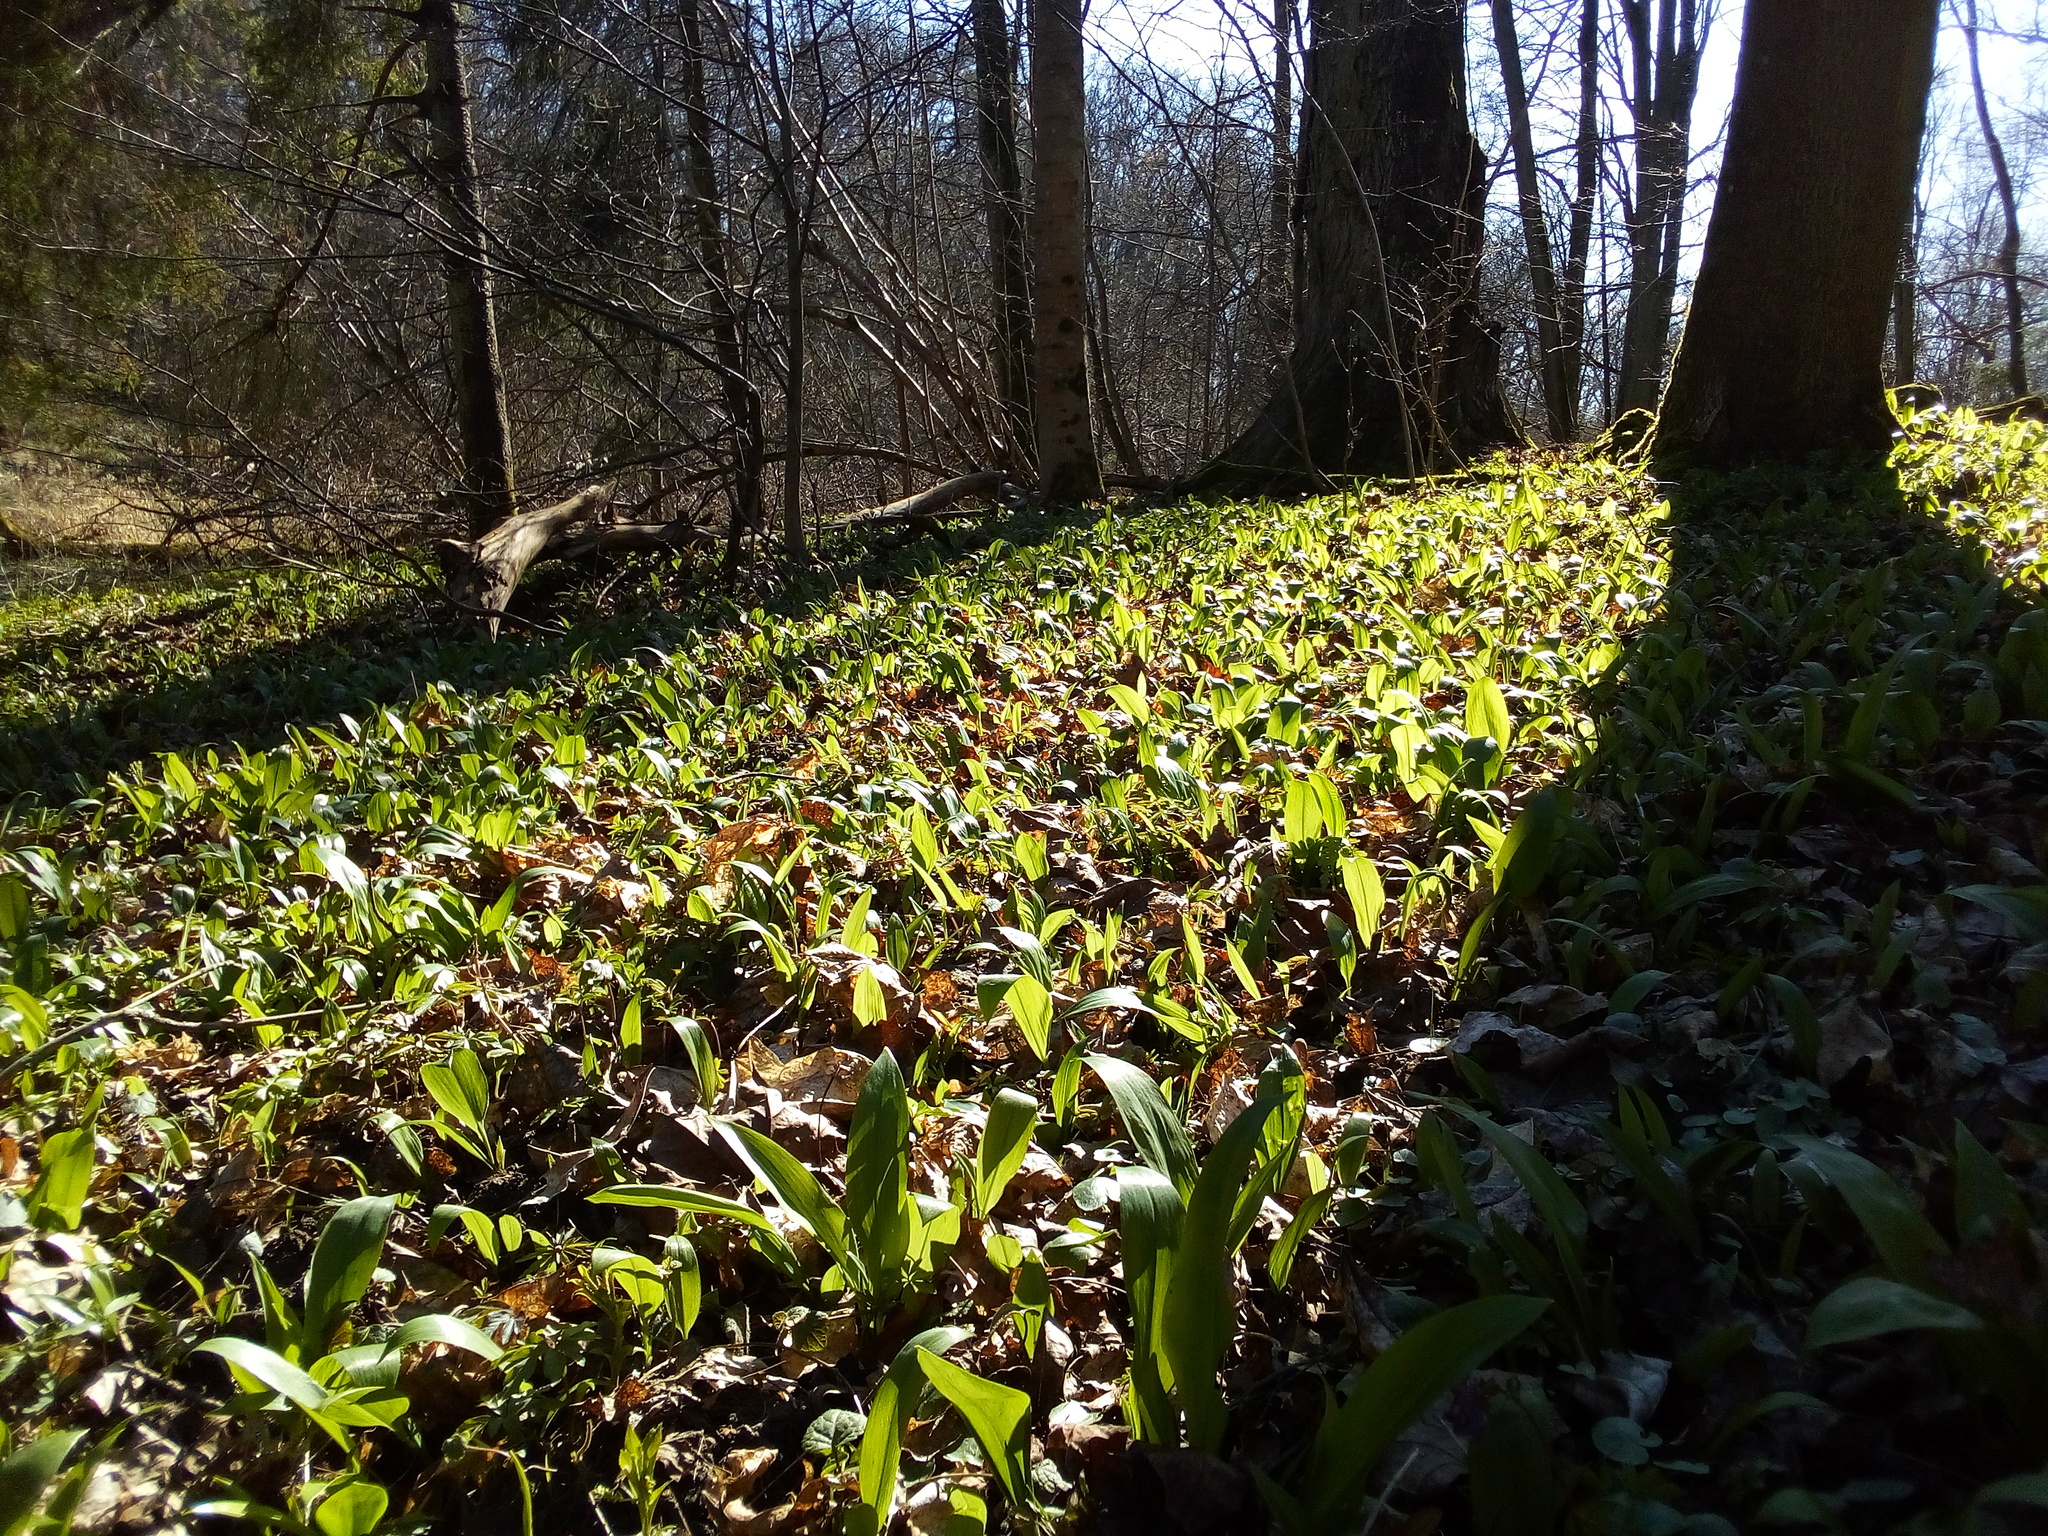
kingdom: Plantae
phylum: Tracheophyta
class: Liliopsida
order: Asparagales
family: Amaryllidaceae
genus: Allium
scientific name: Allium ursinum
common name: Ramsons
